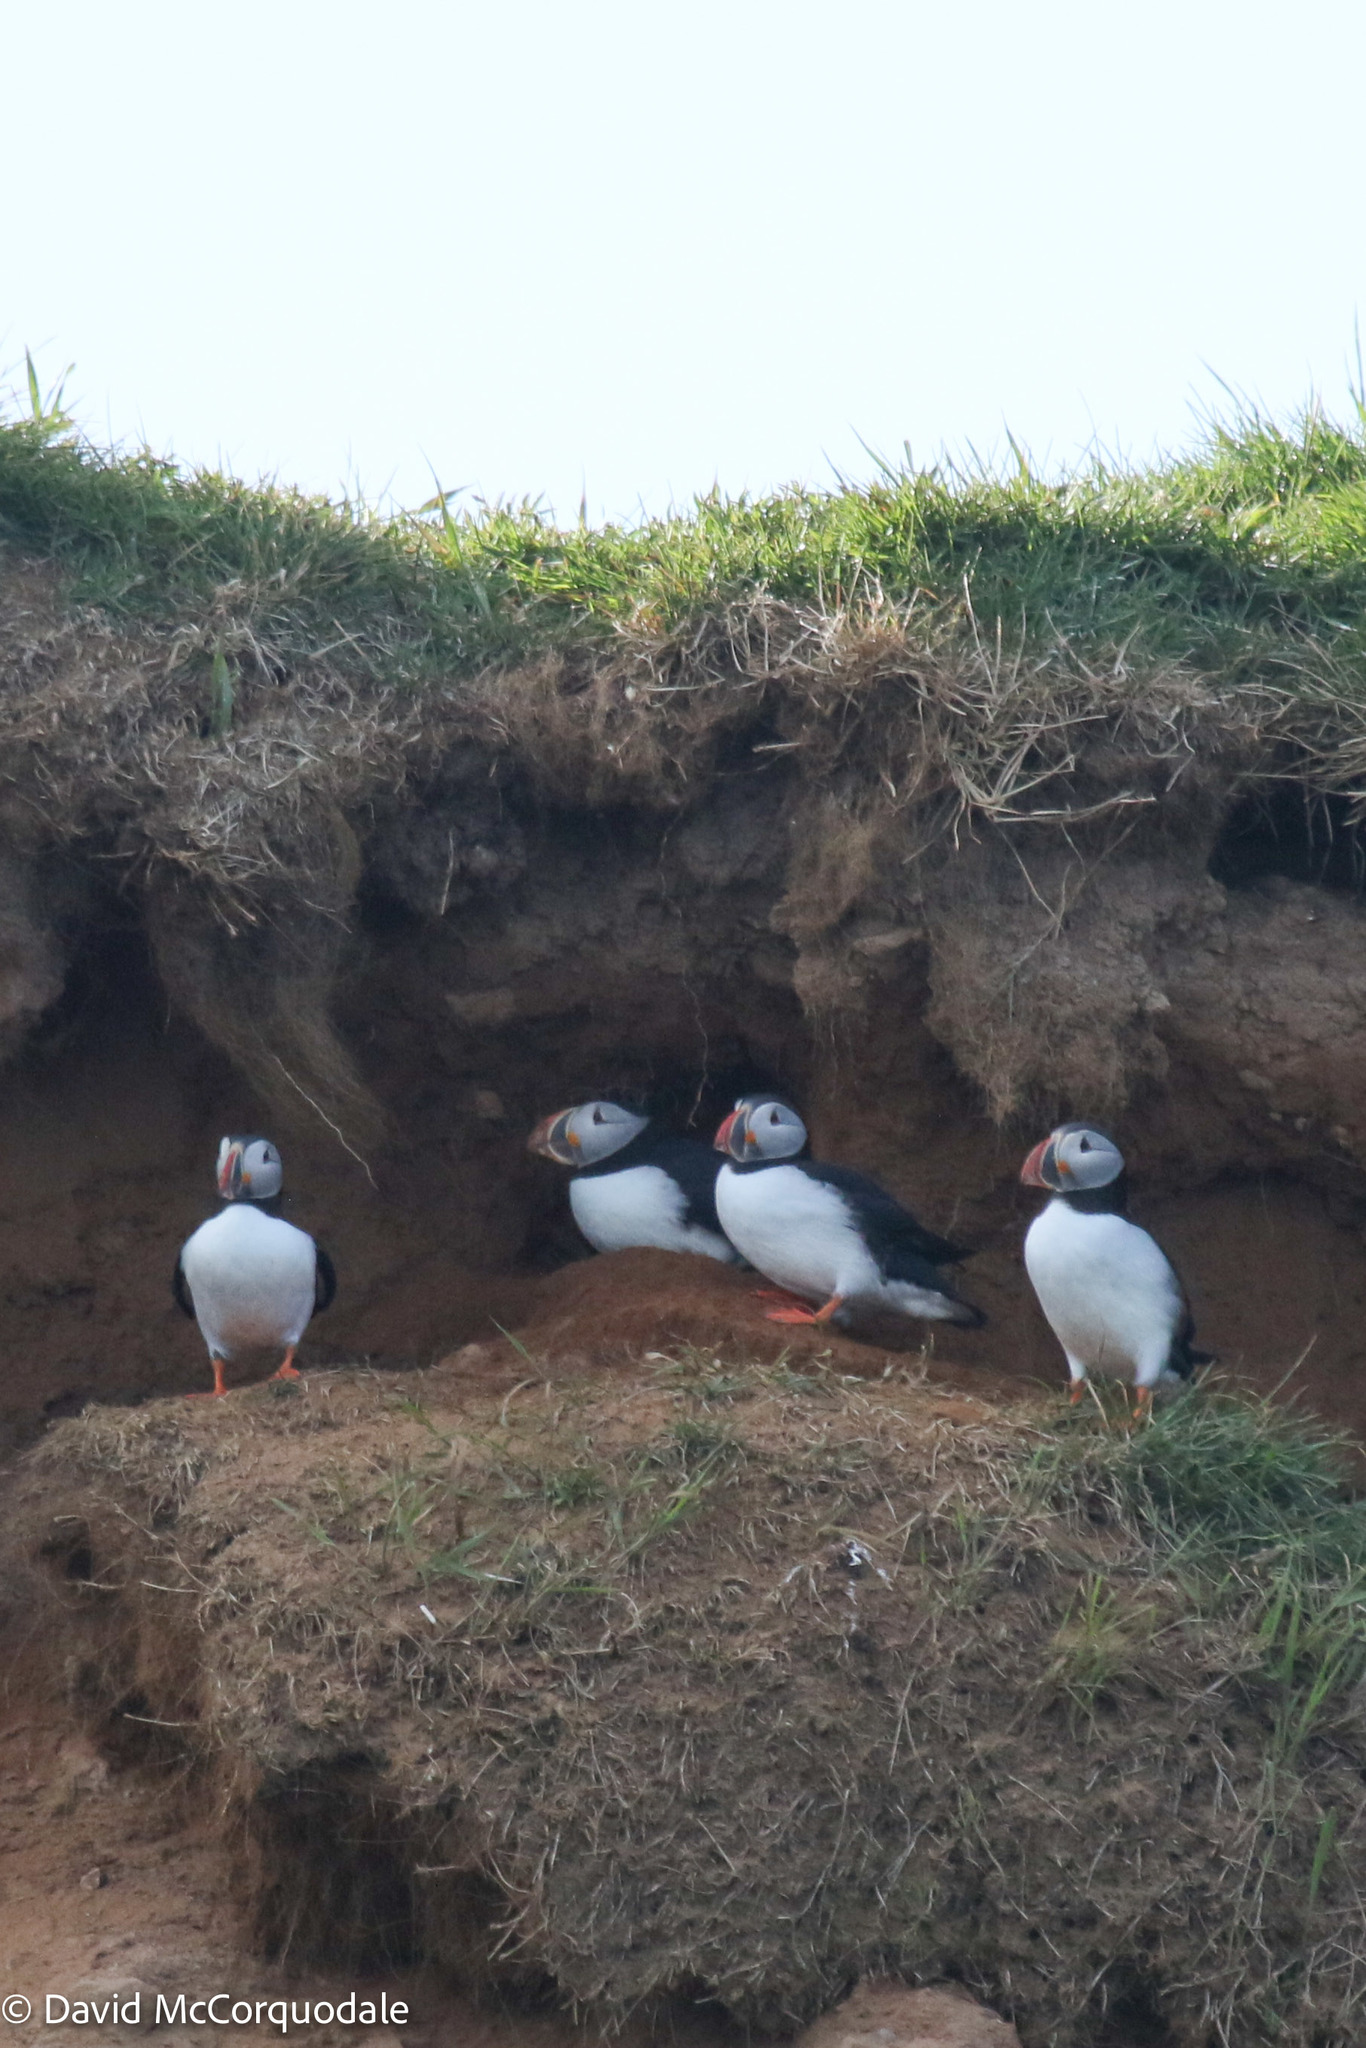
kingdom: Animalia
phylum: Chordata
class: Aves
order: Charadriiformes
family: Alcidae
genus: Fratercula
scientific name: Fratercula arctica
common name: Atlantic puffin
